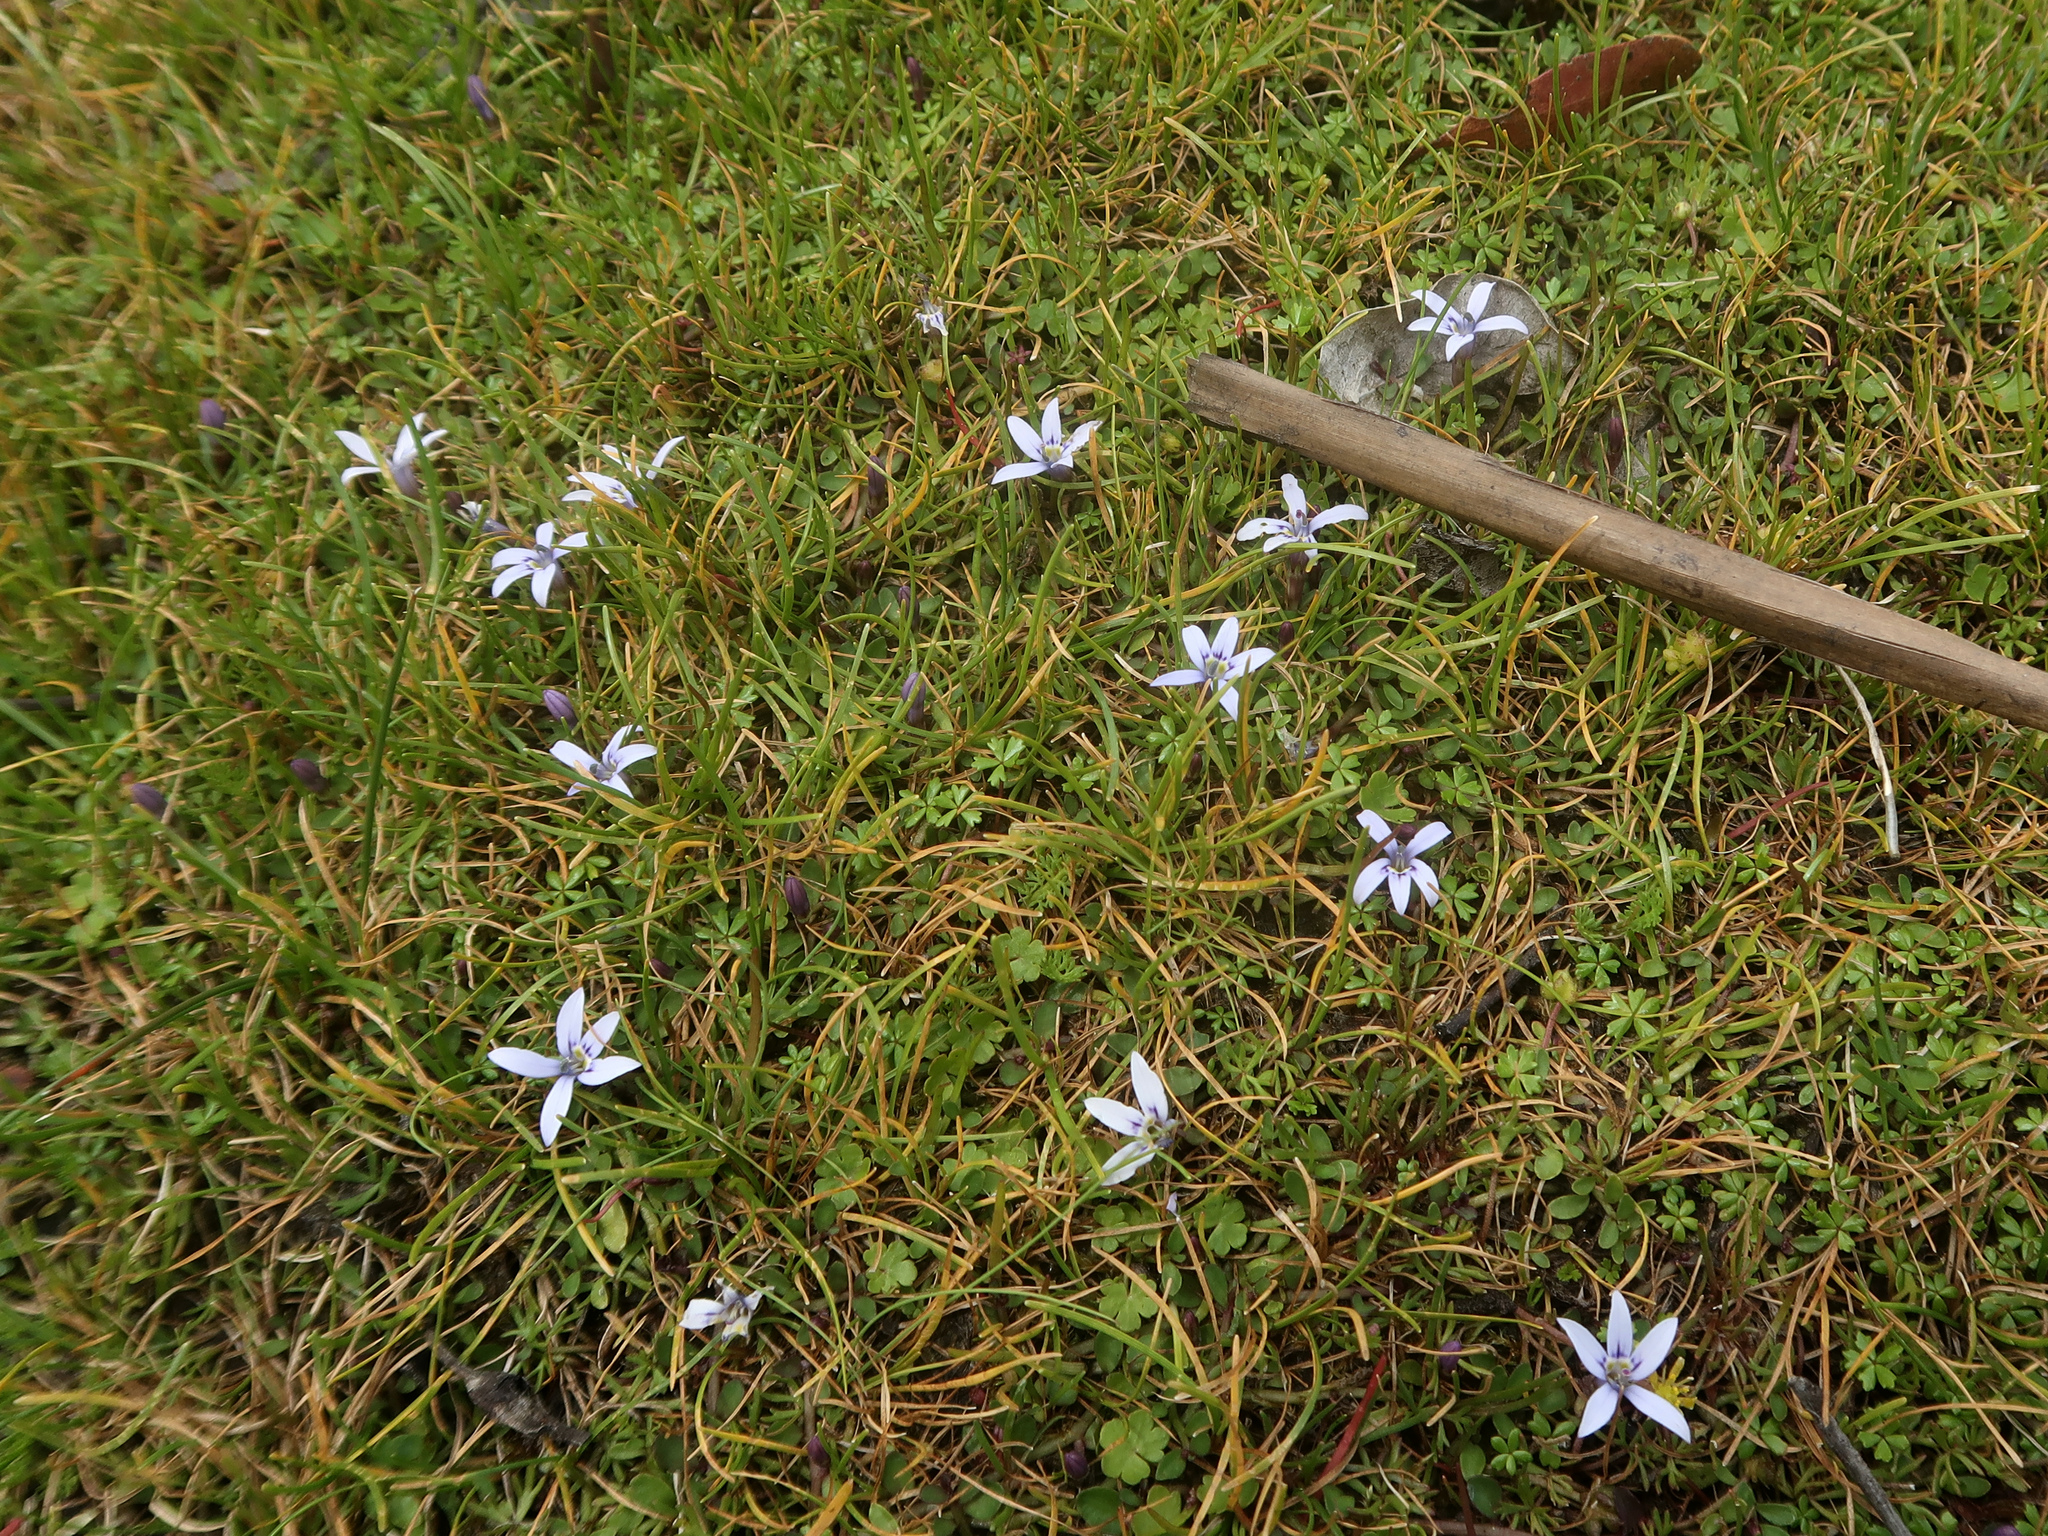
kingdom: Plantae
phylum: Tracheophyta
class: Magnoliopsida
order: Asterales
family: Campanulaceae
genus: Isotoma
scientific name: Isotoma fluviatilis
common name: Isotoma
